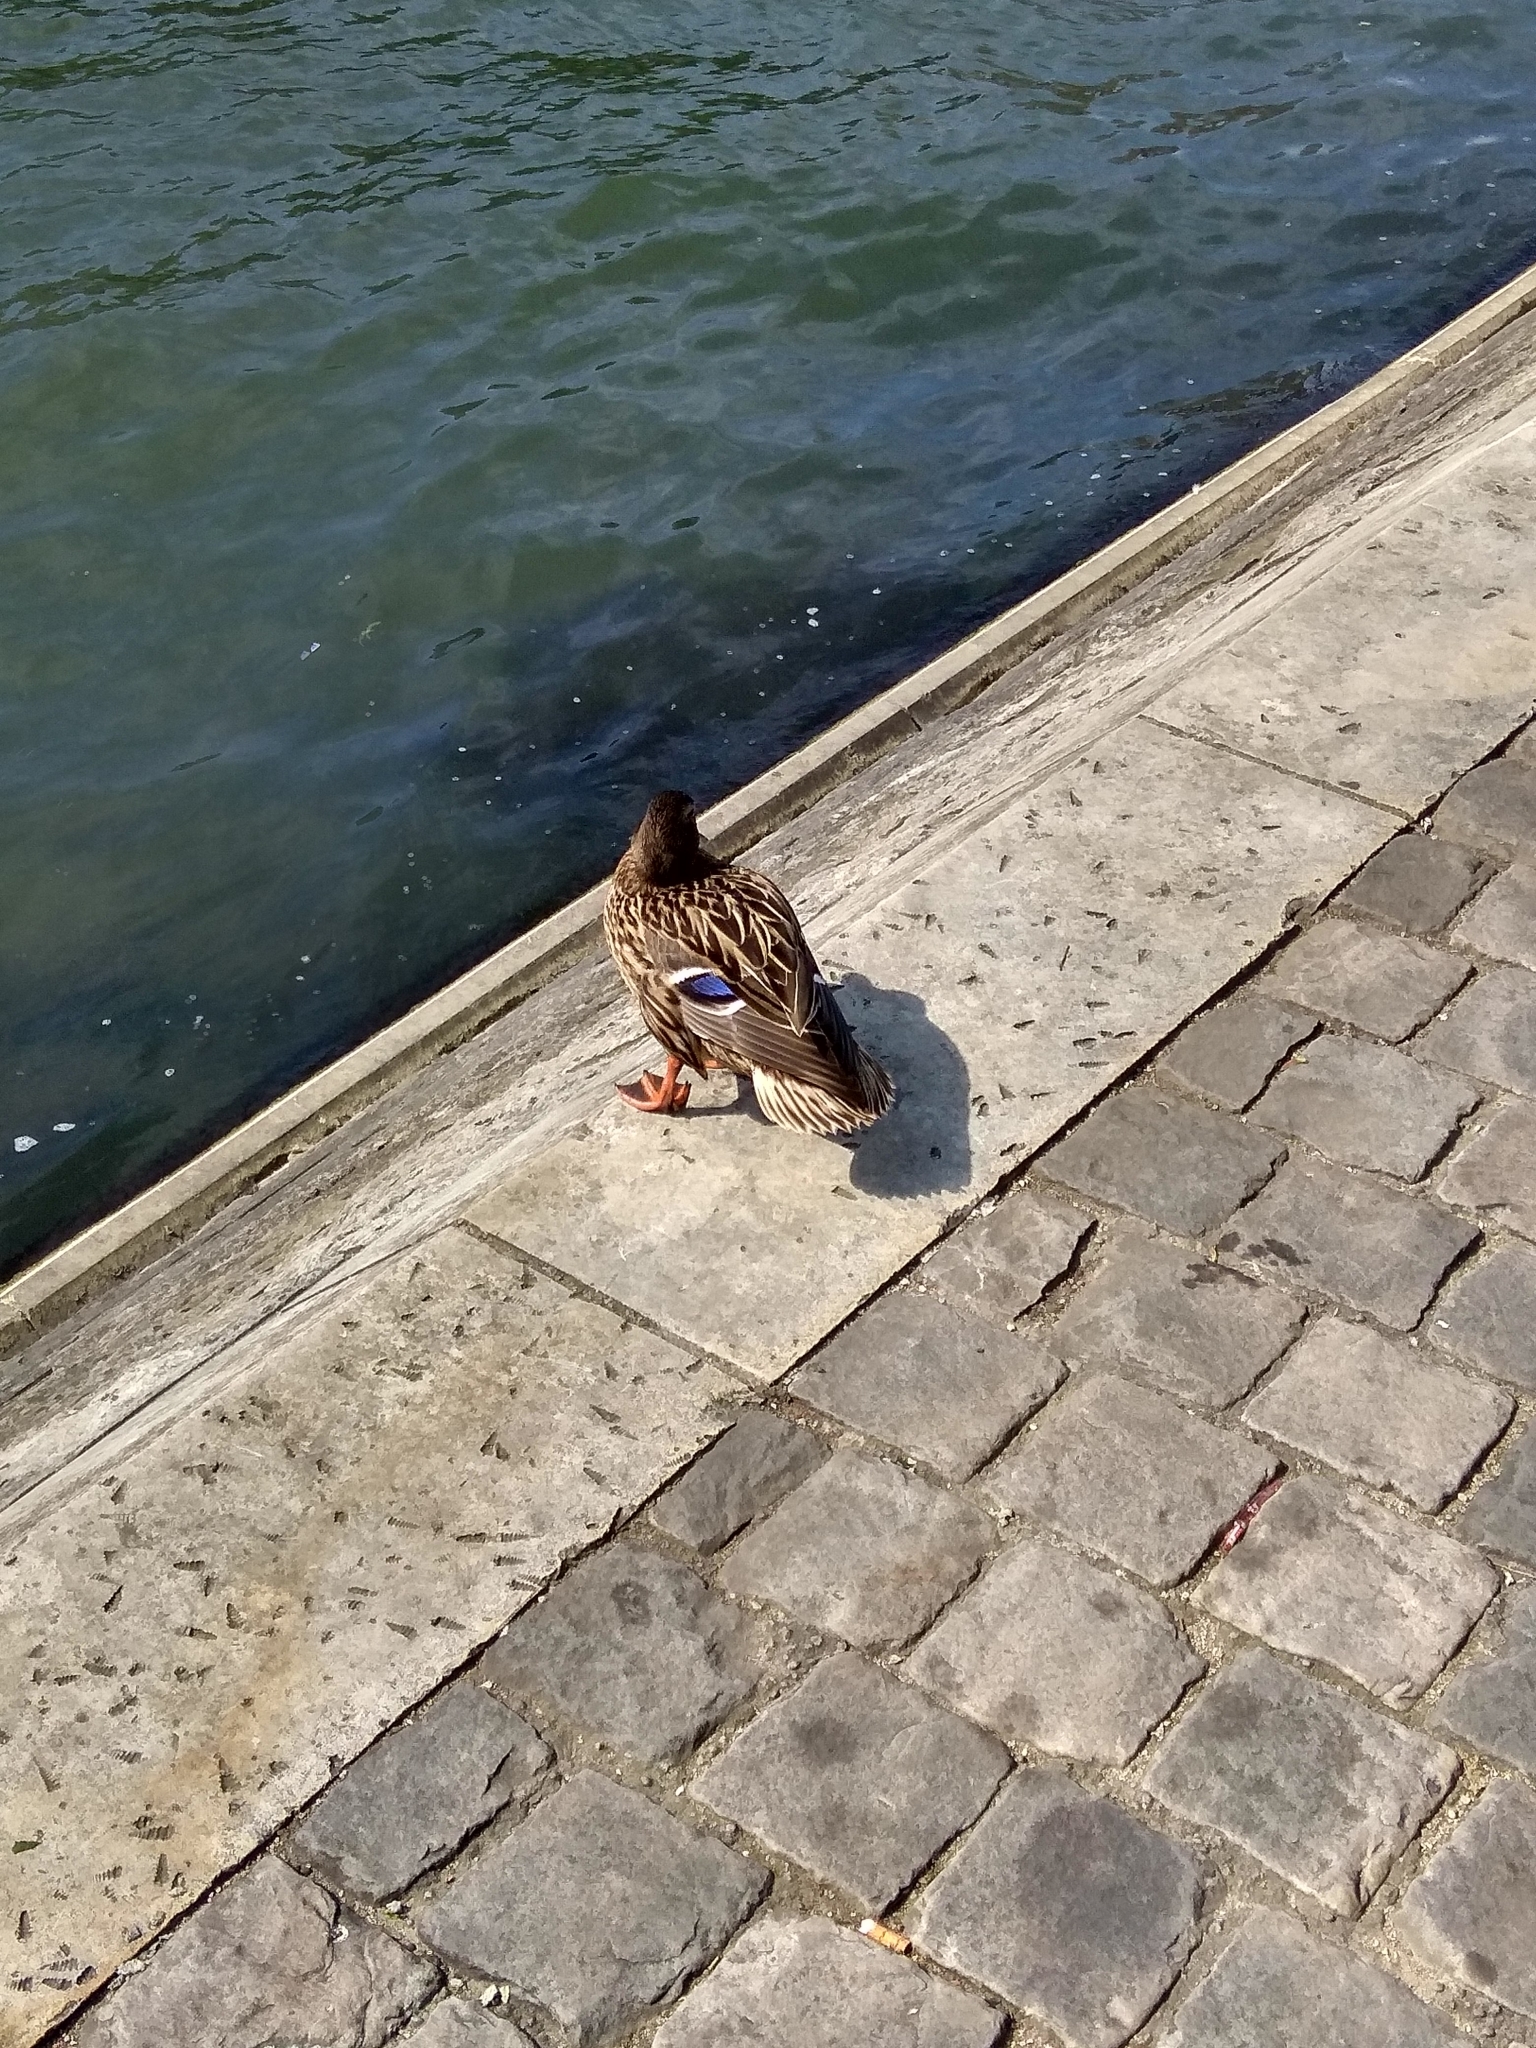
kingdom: Animalia
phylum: Chordata
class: Aves
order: Anseriformes
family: Anatidae
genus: Anas
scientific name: Anas platyrhynchos
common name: Mallard
